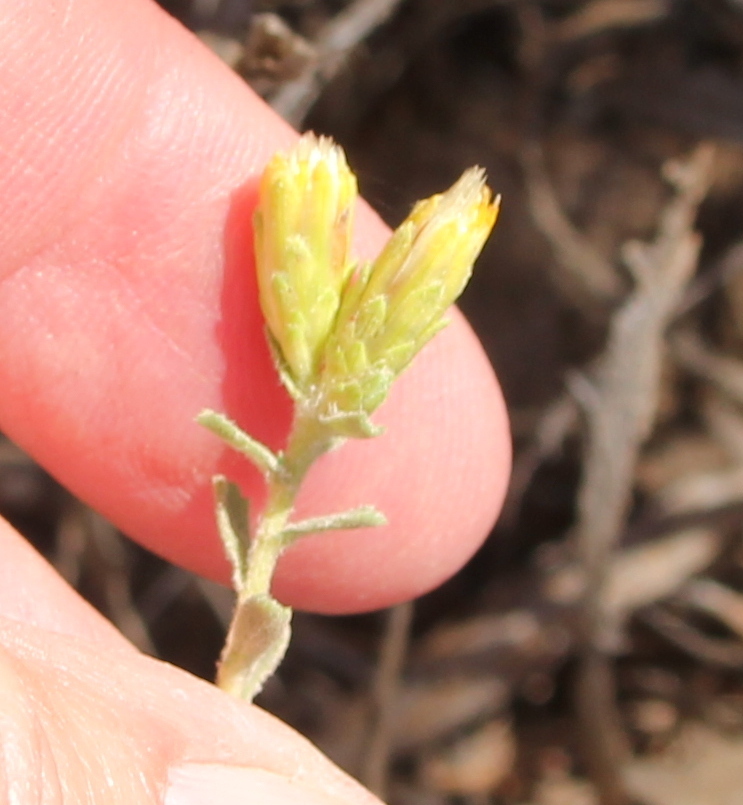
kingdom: Plantae
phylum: Tracheophyta
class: Magnoliopsida
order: Asterales
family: Asteraceae
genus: Isocoma
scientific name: Isocoma menziesii
